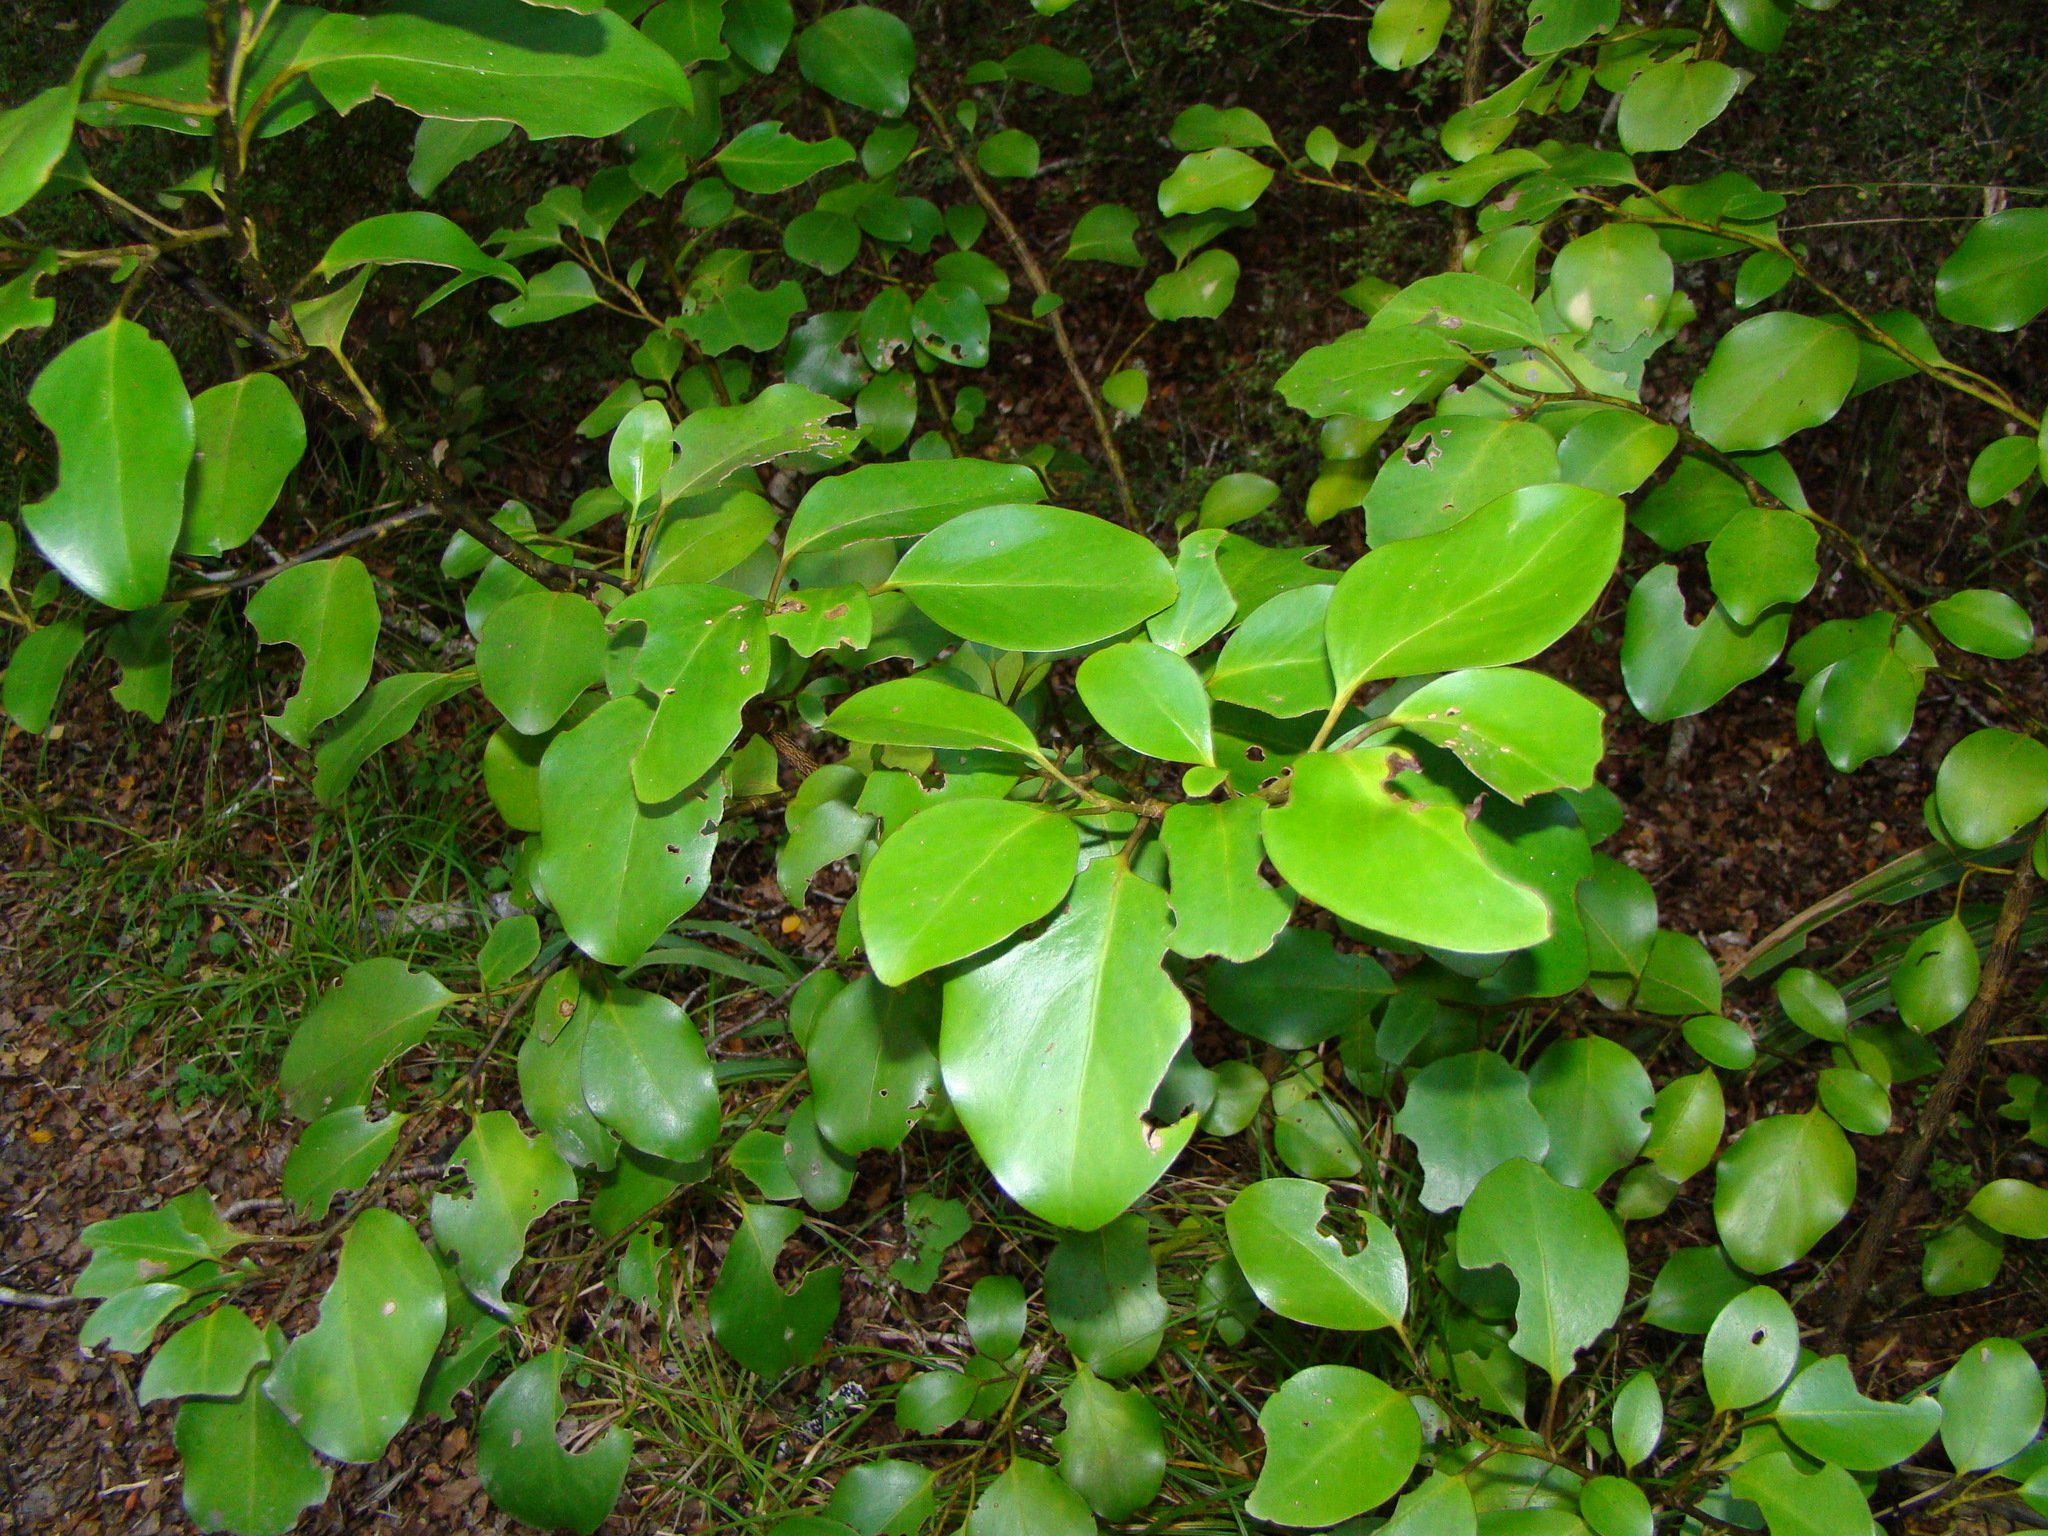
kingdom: Plantae
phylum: Tracheophyta
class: Magnoliopsida
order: Apiales
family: Griseliniaceae
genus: Griselinia
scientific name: Griselinia littoralis
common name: New zealand broadleaf
